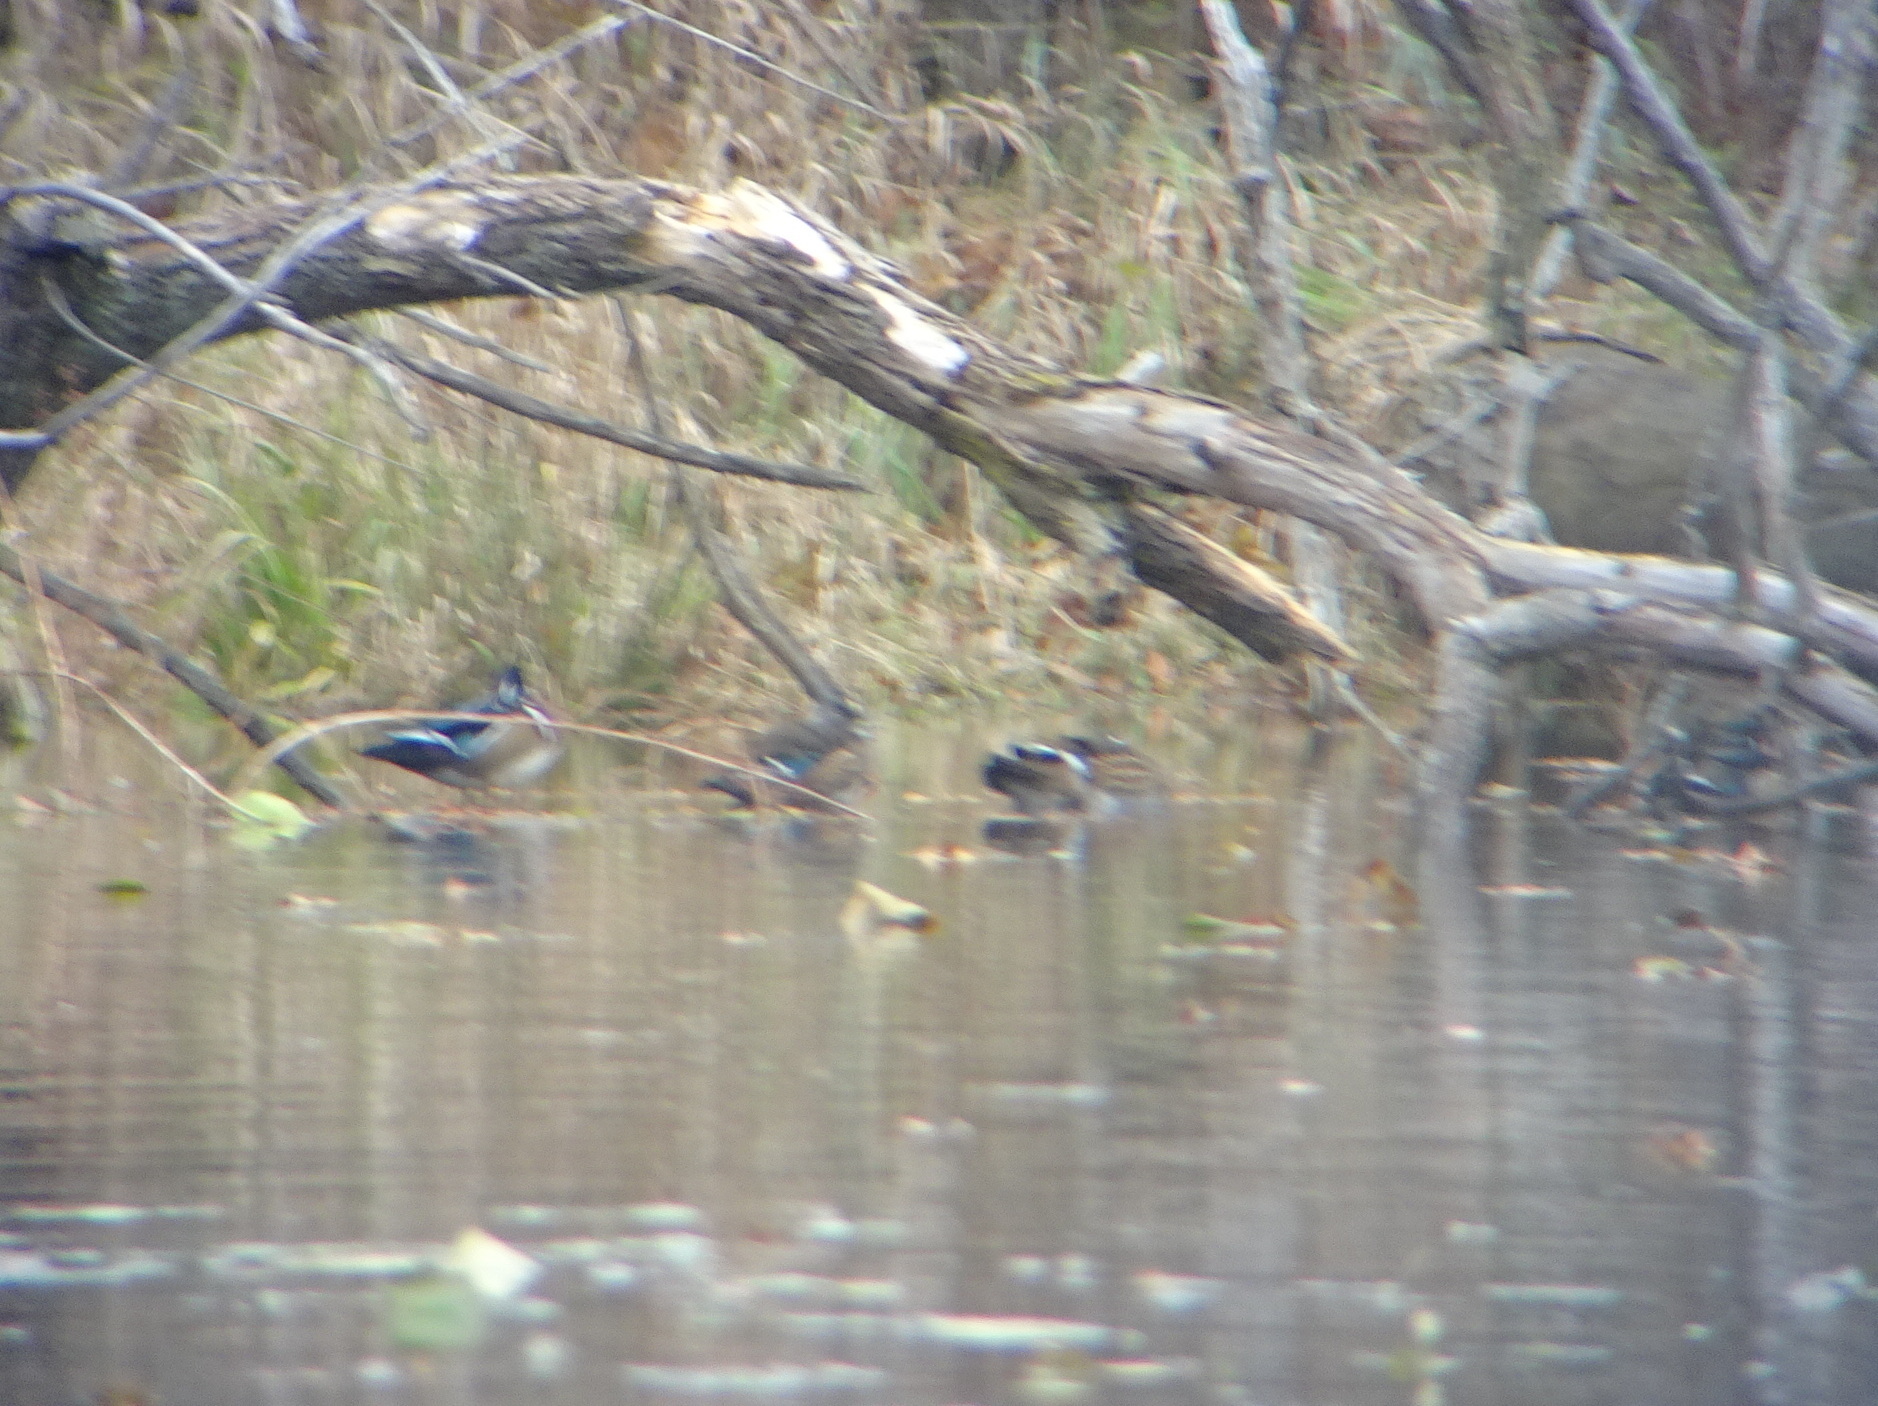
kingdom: Animalia
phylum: Chordata
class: Aves
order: Anseriformes
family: Anatidae
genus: Aix
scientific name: Aix sponsa
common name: Wood duck
